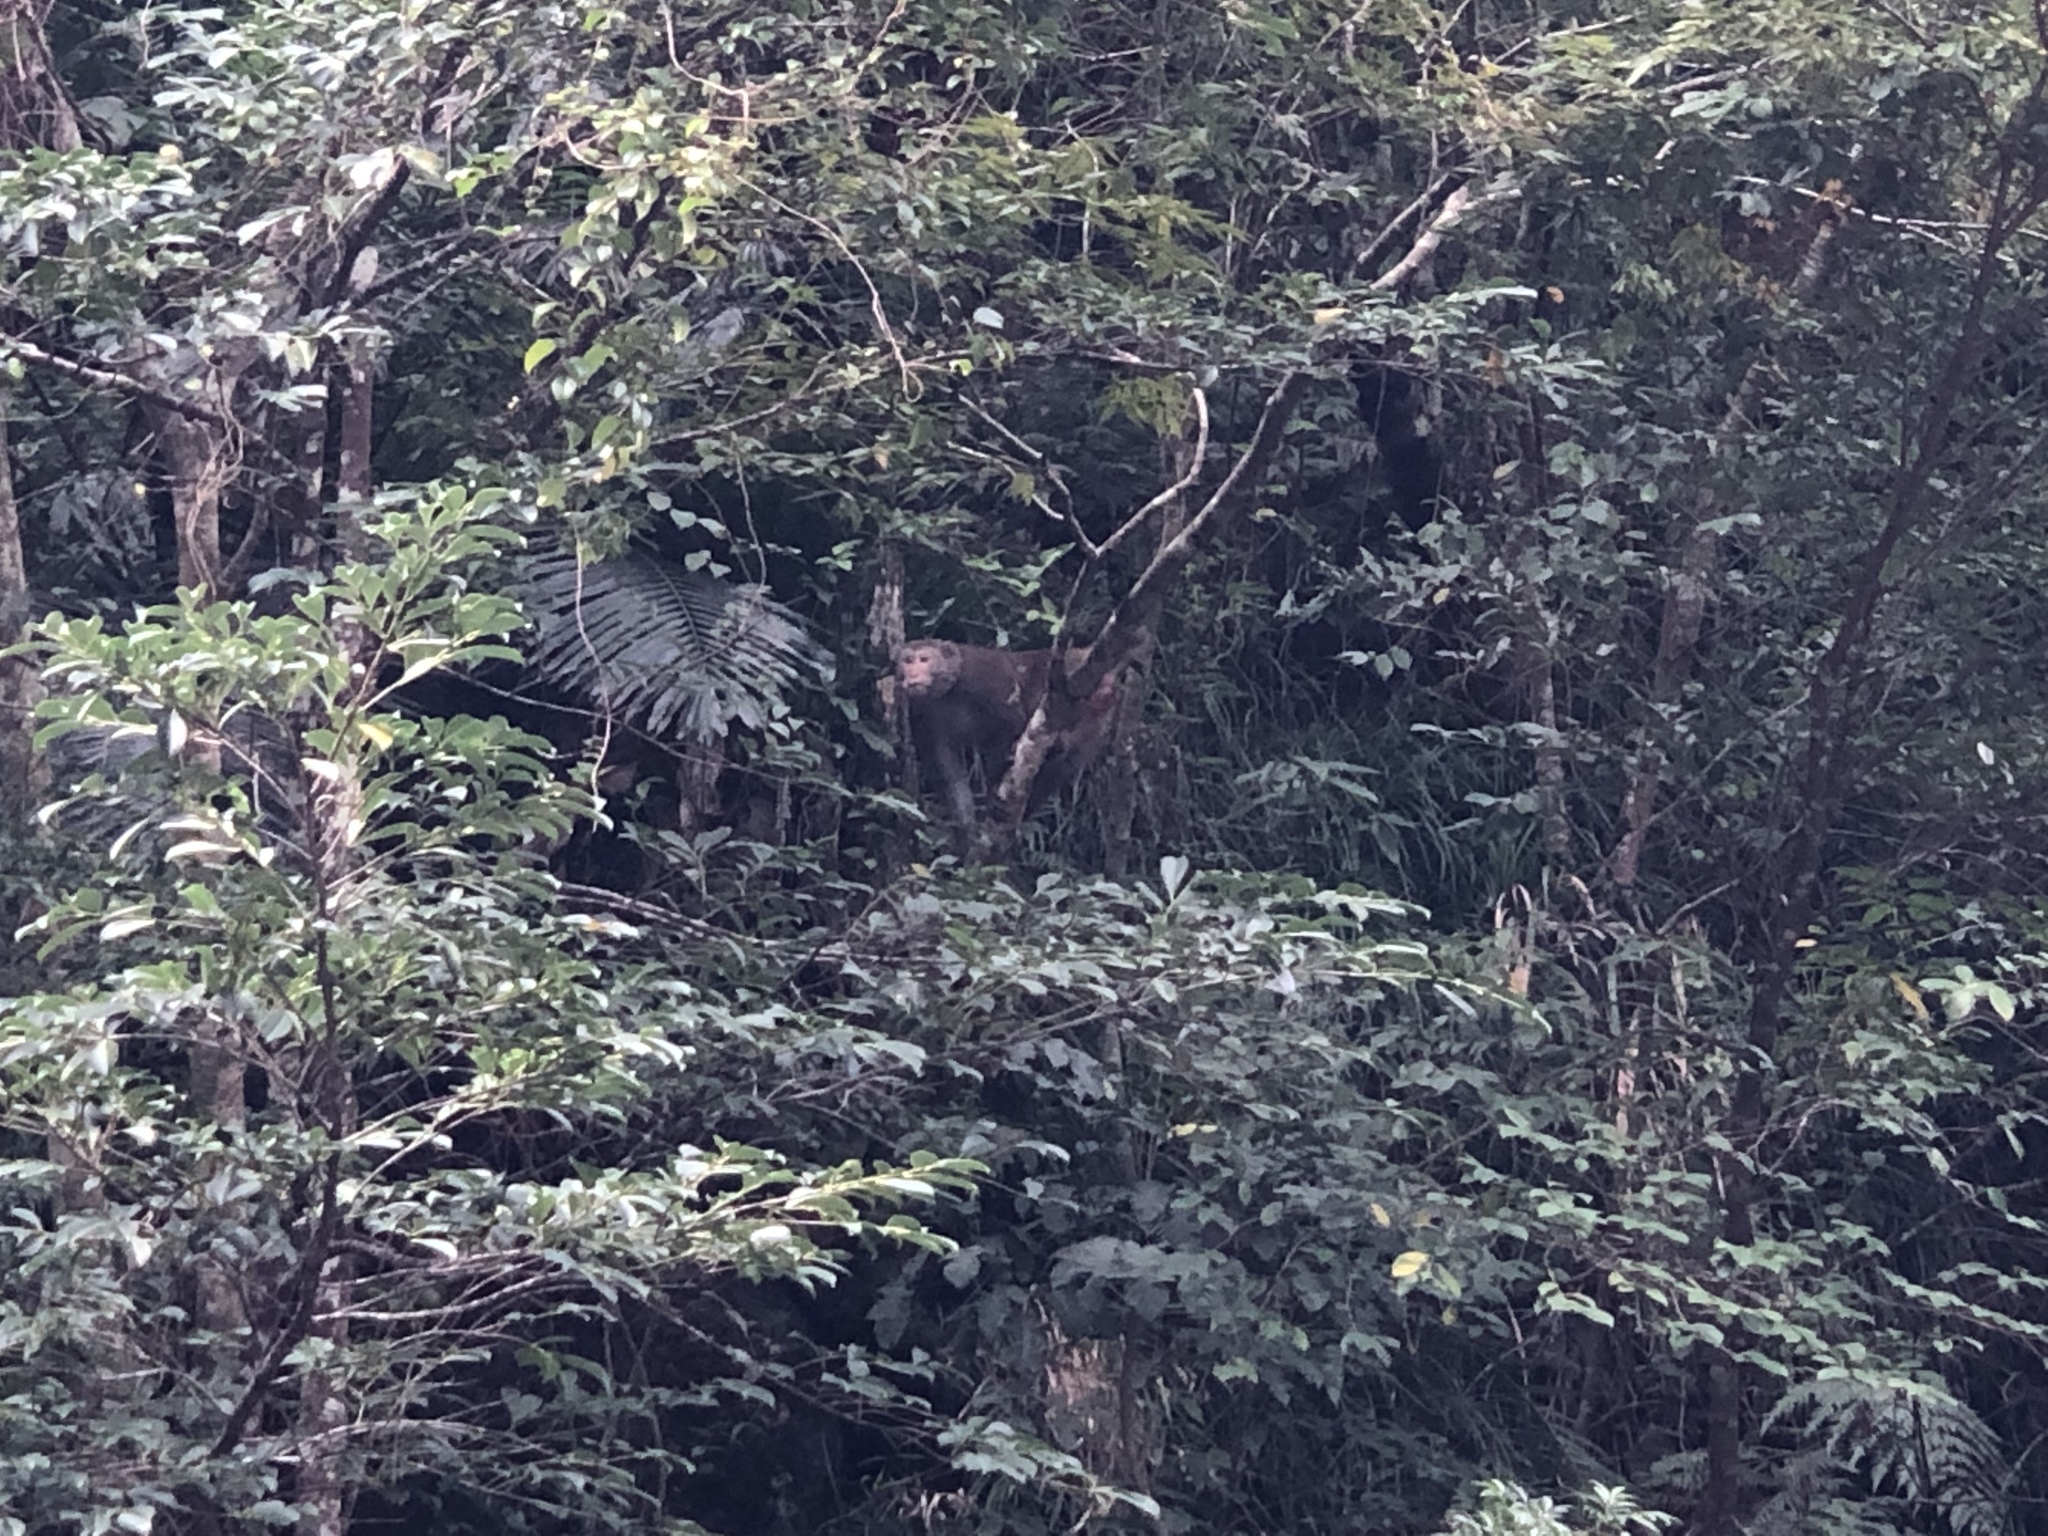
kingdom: Animalia
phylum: Chordata
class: Mammalia
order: Primates
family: Cercopithecidae
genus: Macaca
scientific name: Macaca cyclopis
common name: Formosan rock macaque
